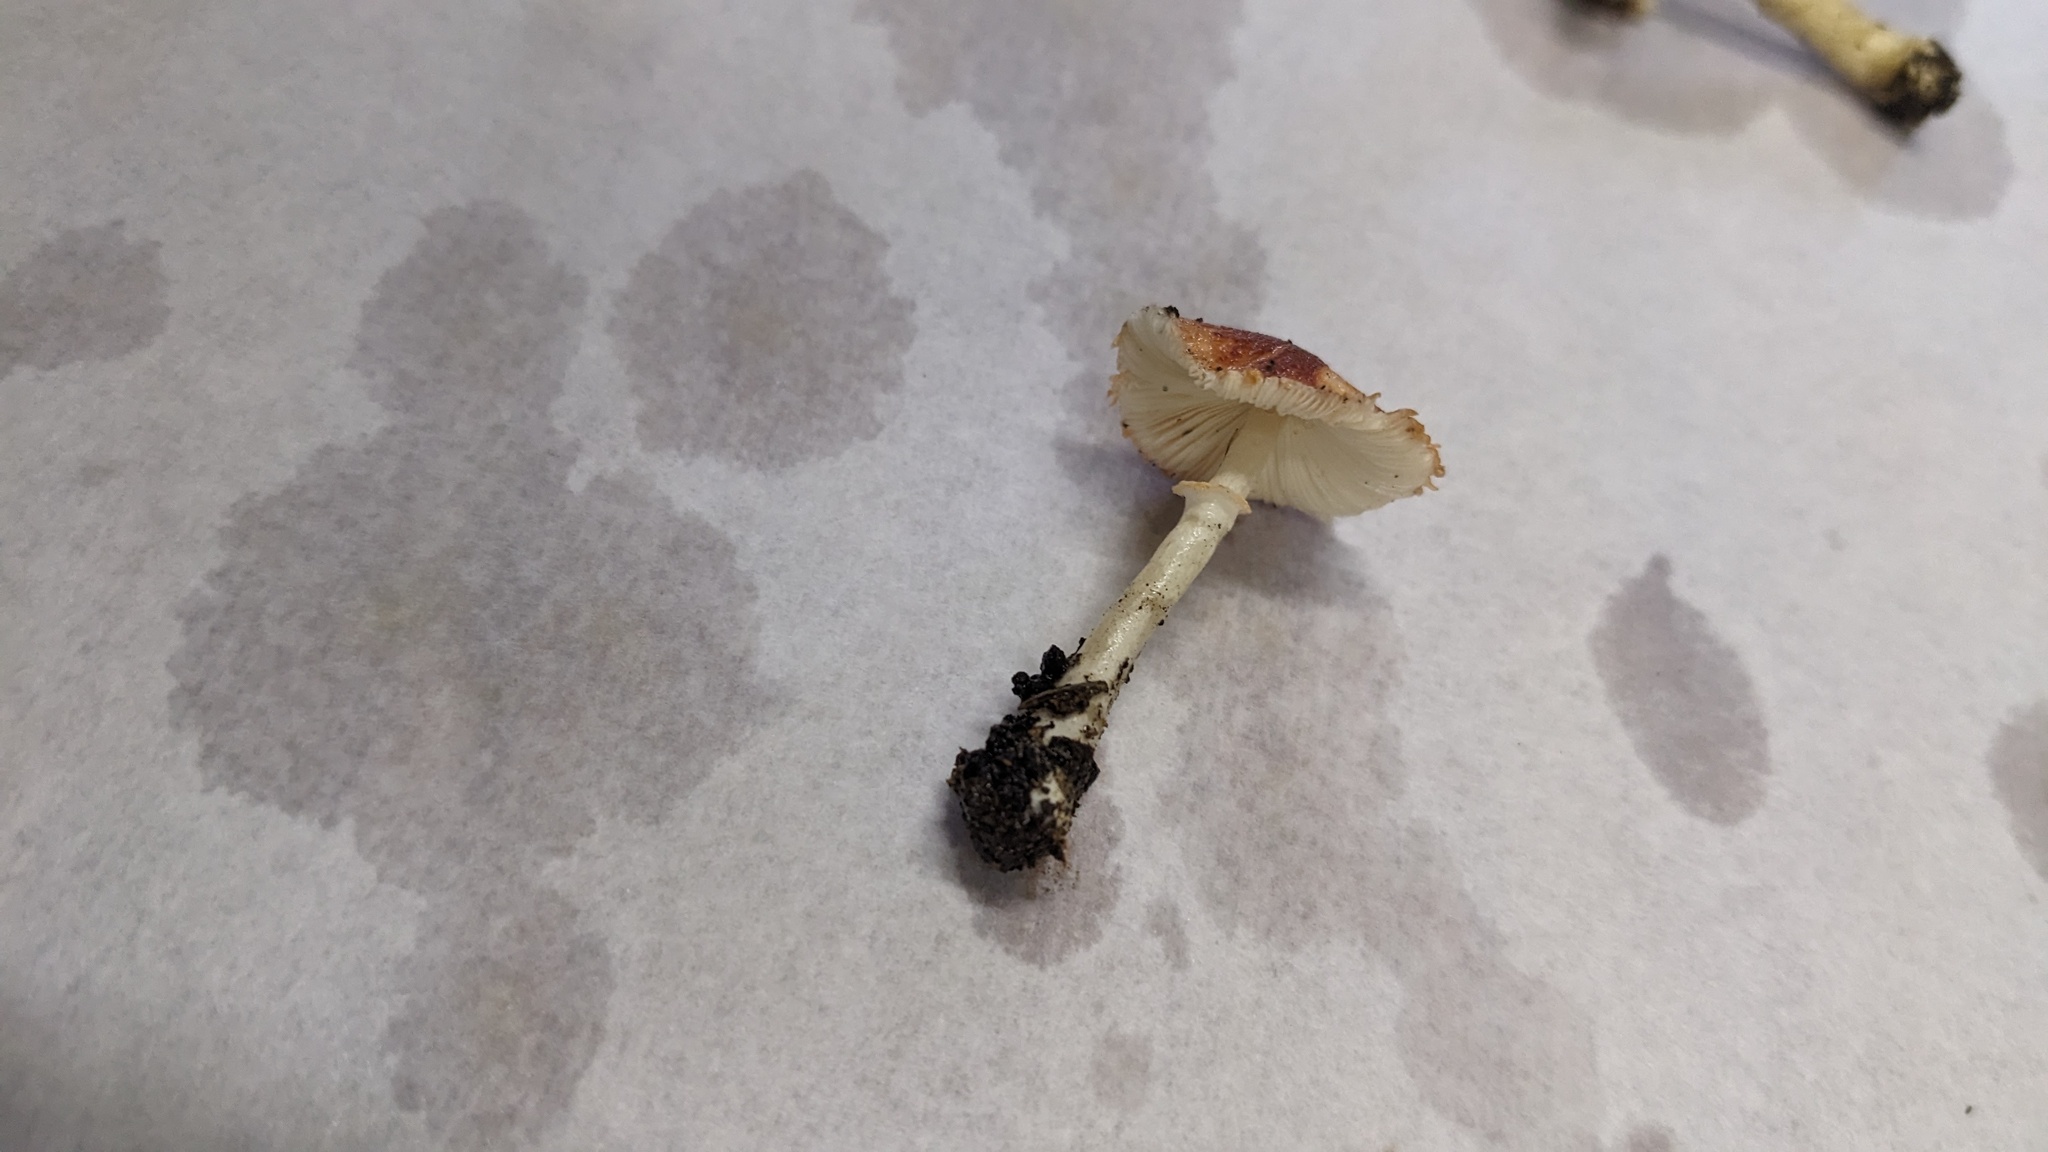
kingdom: Fungi
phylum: Basidiomycota
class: Agaricomycetes
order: Agaricales
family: Agaricaceae
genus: Leucoagaricus
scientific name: Leucoagaricus rubrotinctus
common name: Ruby dapperling
